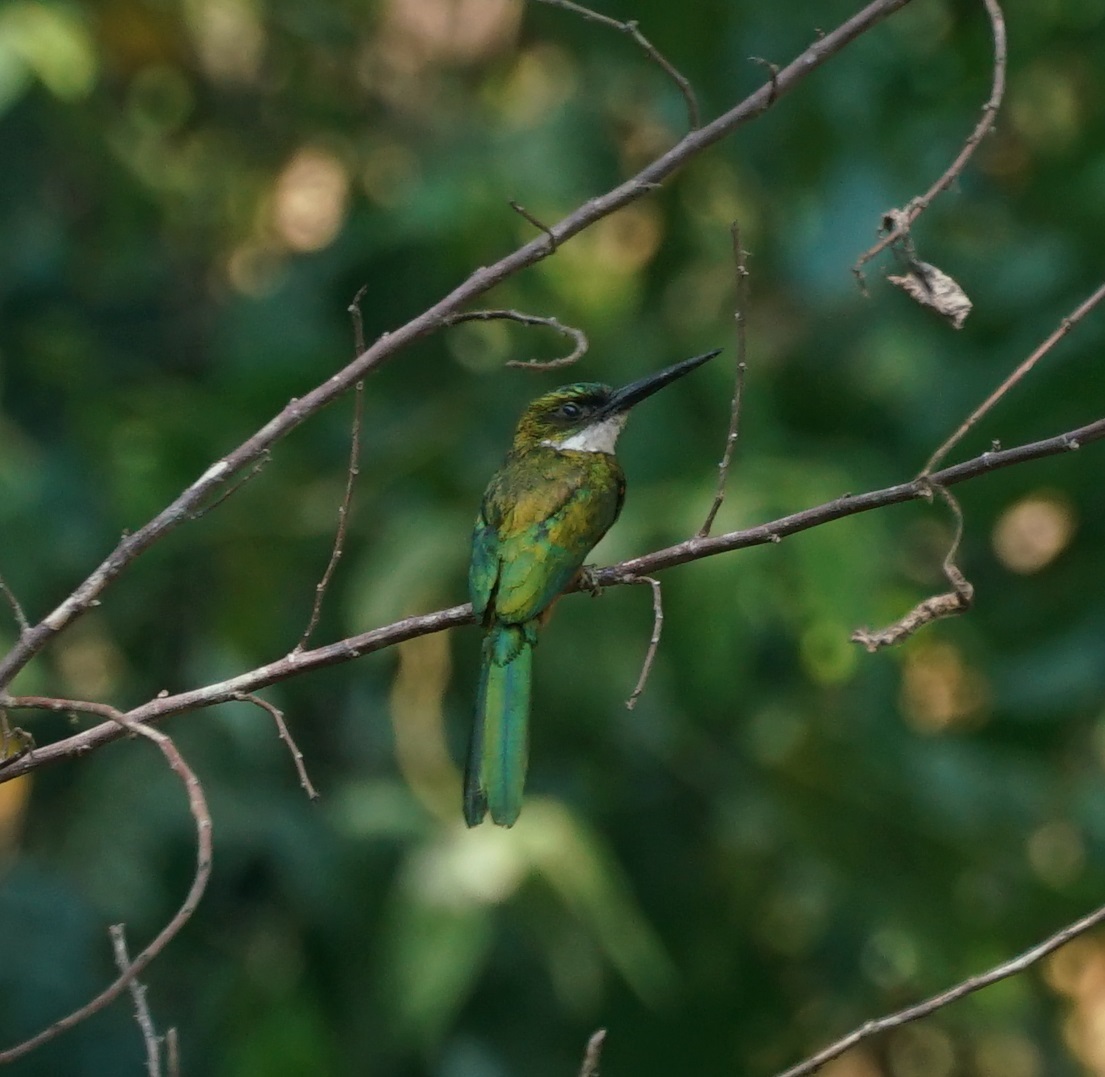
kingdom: Animalia
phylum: Chordata
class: Aves
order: Piciformes
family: Galbulidae
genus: Galbula
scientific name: Galbula ruficauda
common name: Rufous-tailed jacamar
